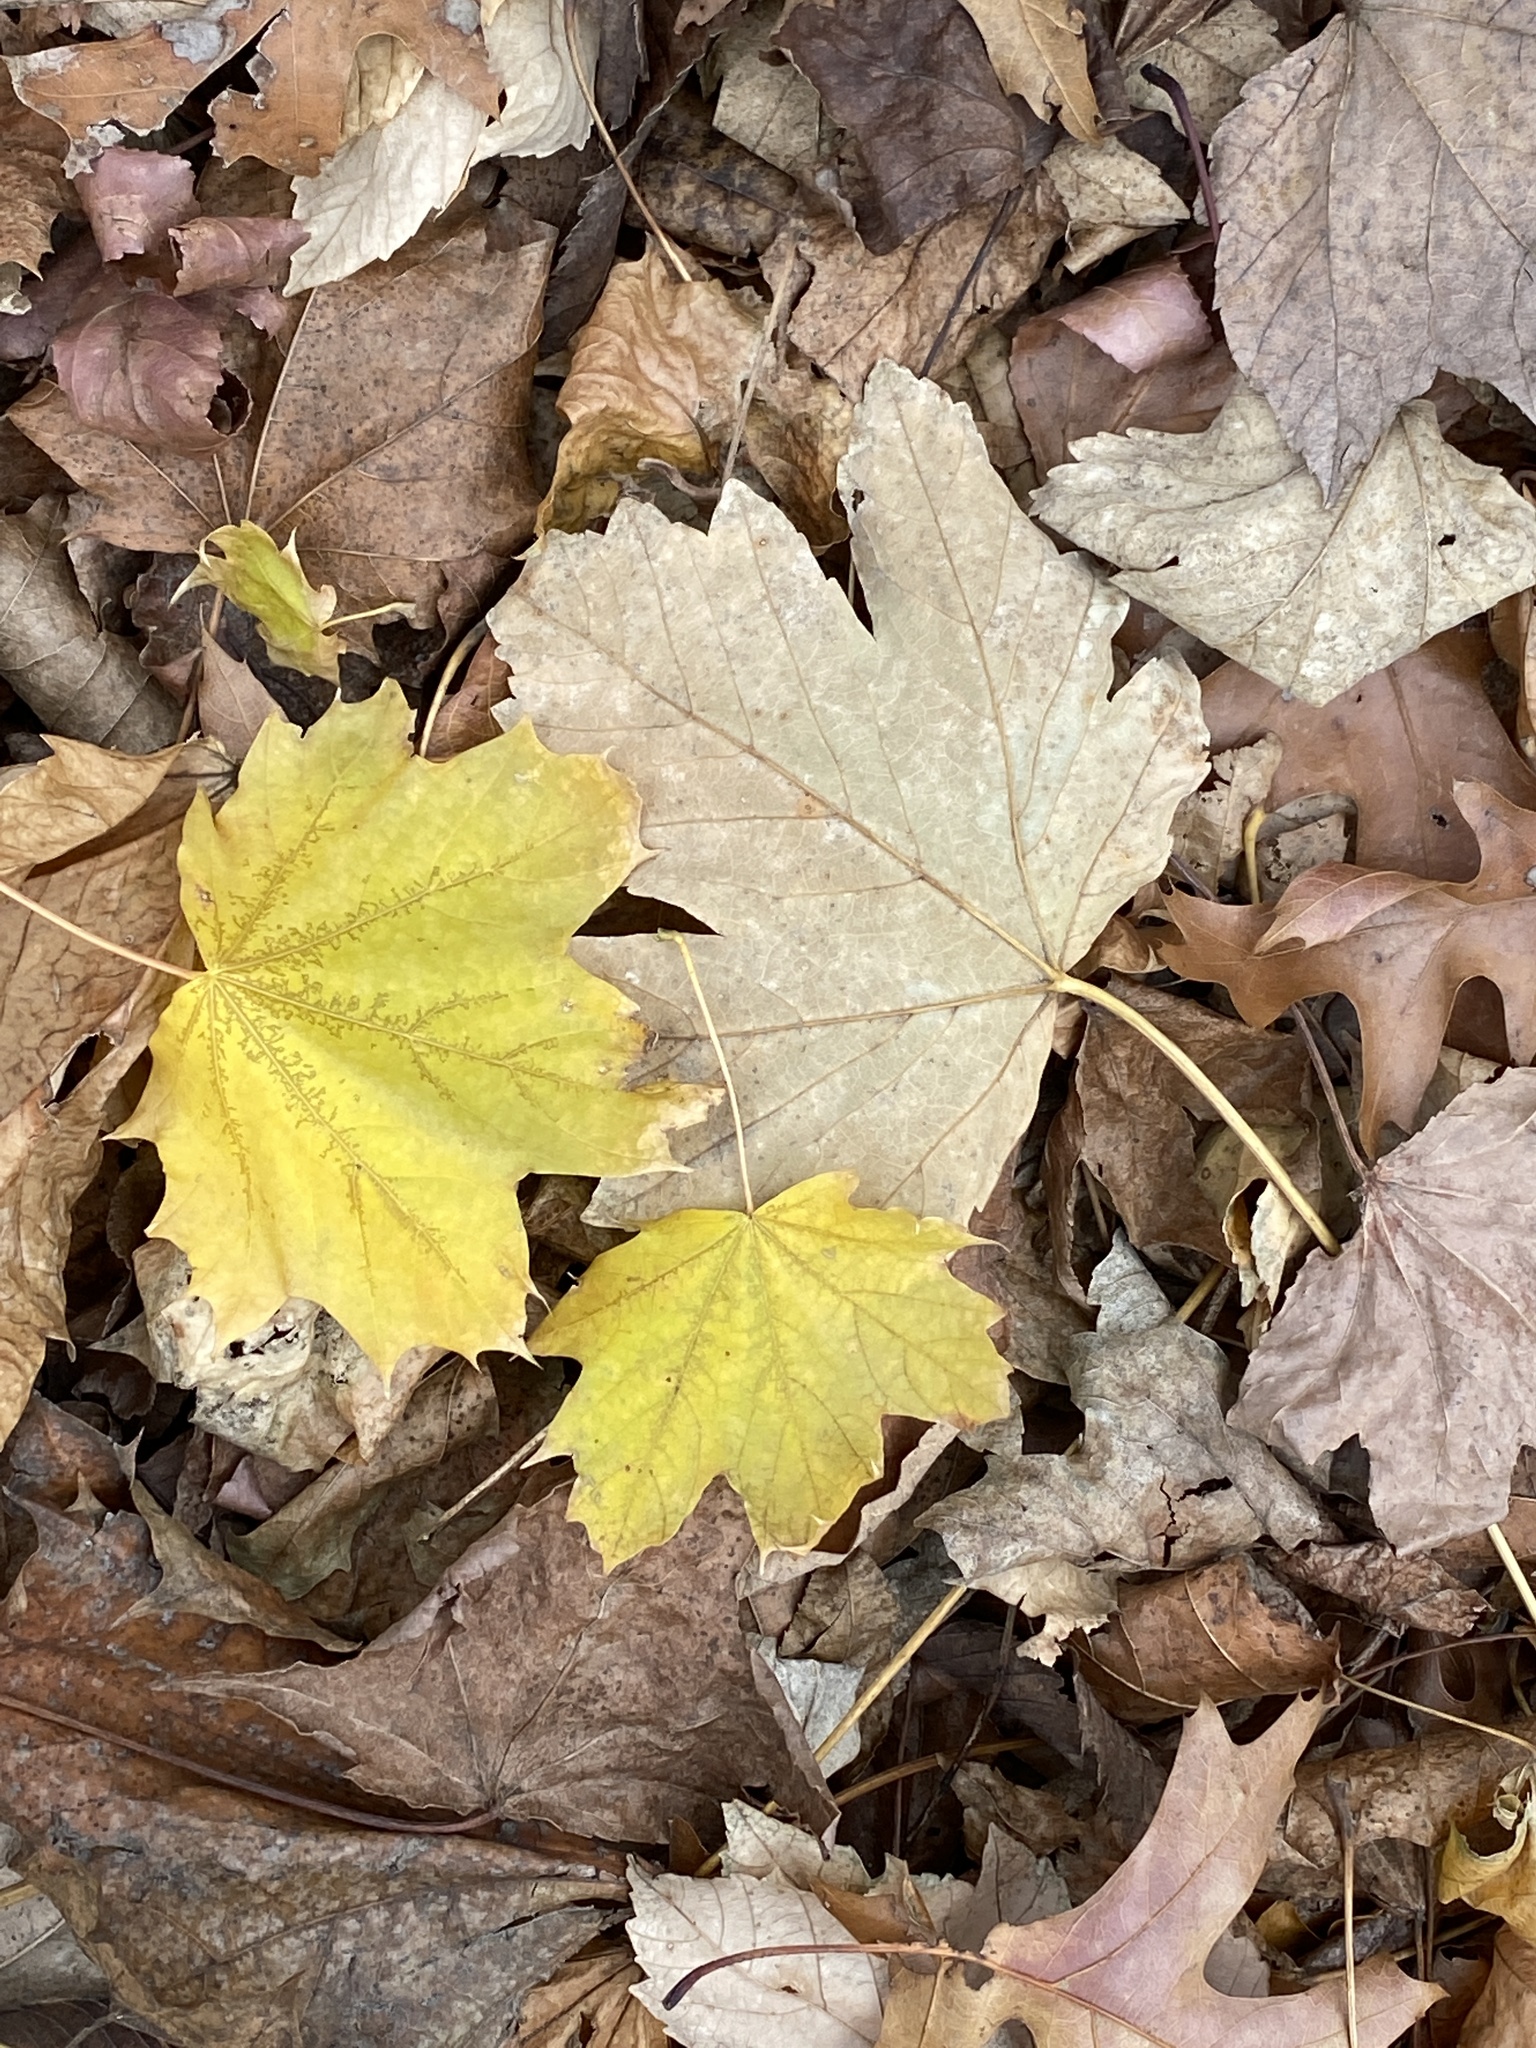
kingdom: Plantae
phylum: Tracheophyta
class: Magnoliopsida
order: Sapindales
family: Sapindaceae
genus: Acer
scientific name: Acer platanoides
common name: Norway maple
